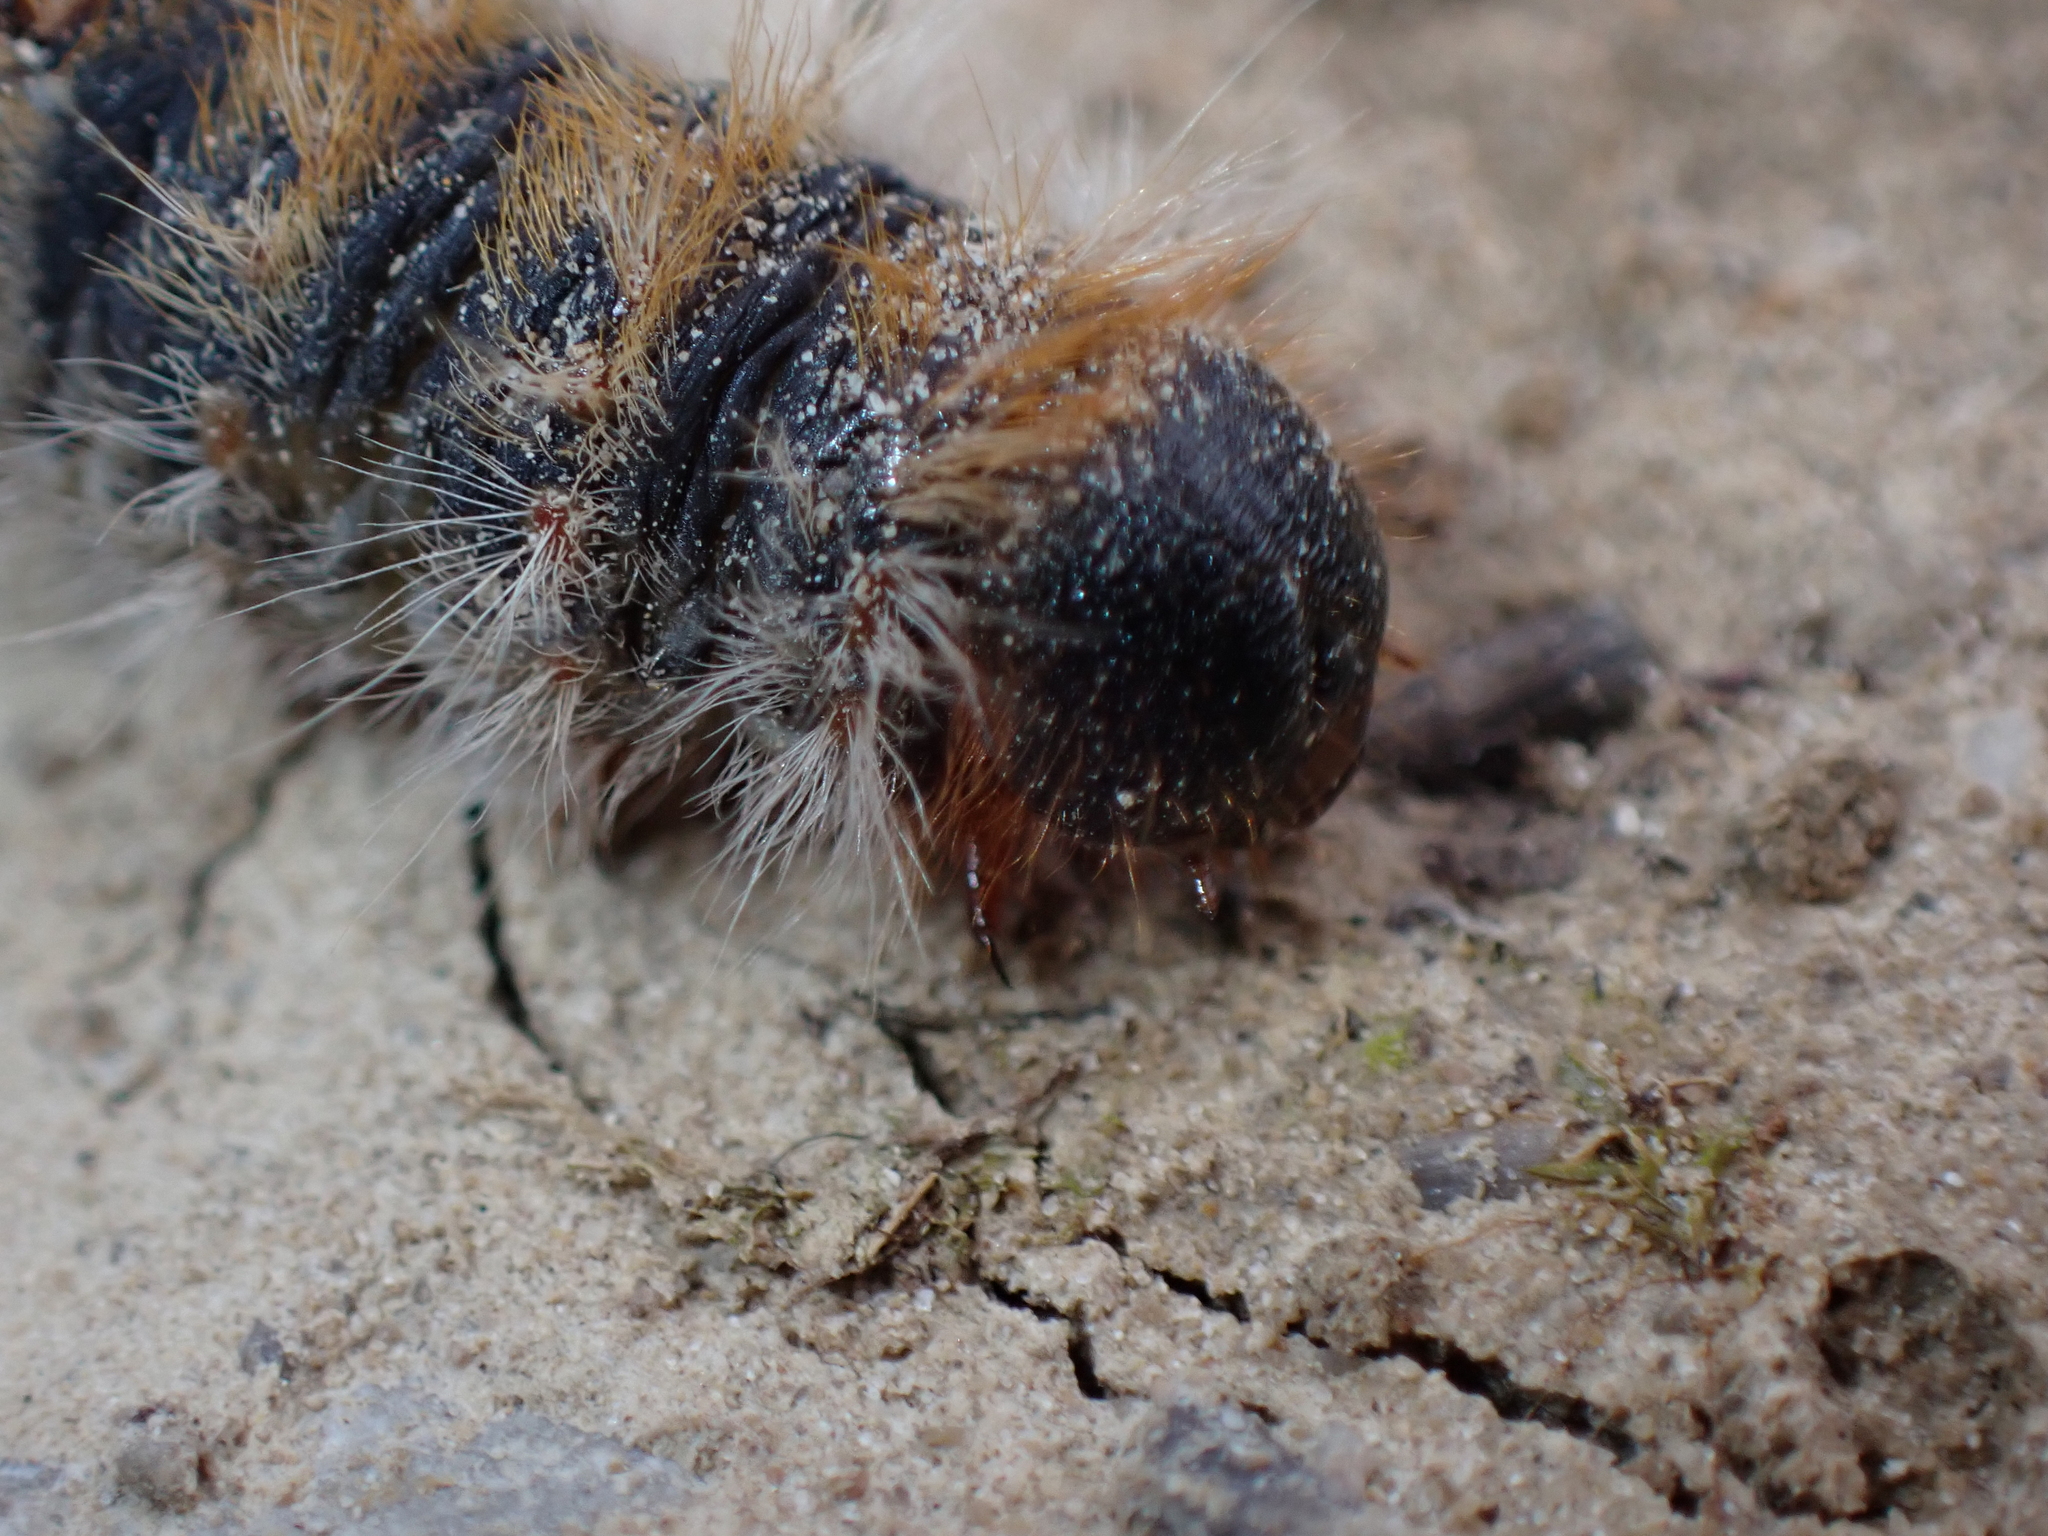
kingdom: Animalia
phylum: Arthropoda
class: Insecta
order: Lepidoptera
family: Notodontidae
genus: Thaumetopoea
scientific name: Thaumetopoea pityocampa
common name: Pine processionary
